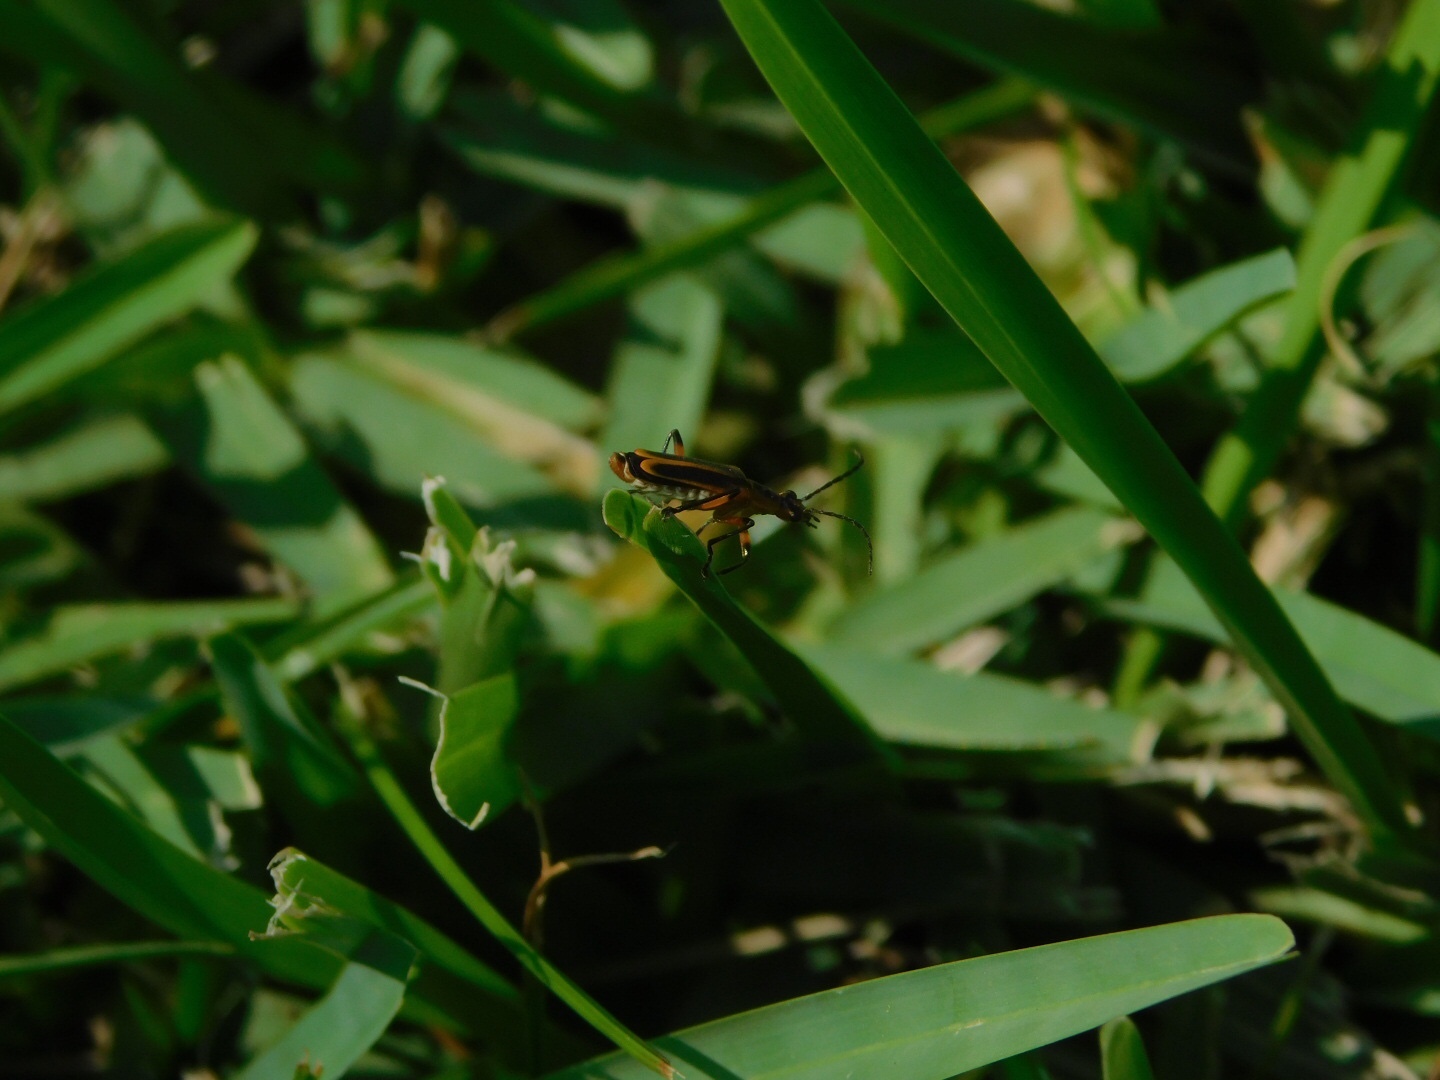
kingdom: Animalia
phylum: Arthropoda
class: Insecta
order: Coleoptera
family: Cantharidae
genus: Chauliognathus
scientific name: Chauliognathus marginatus
